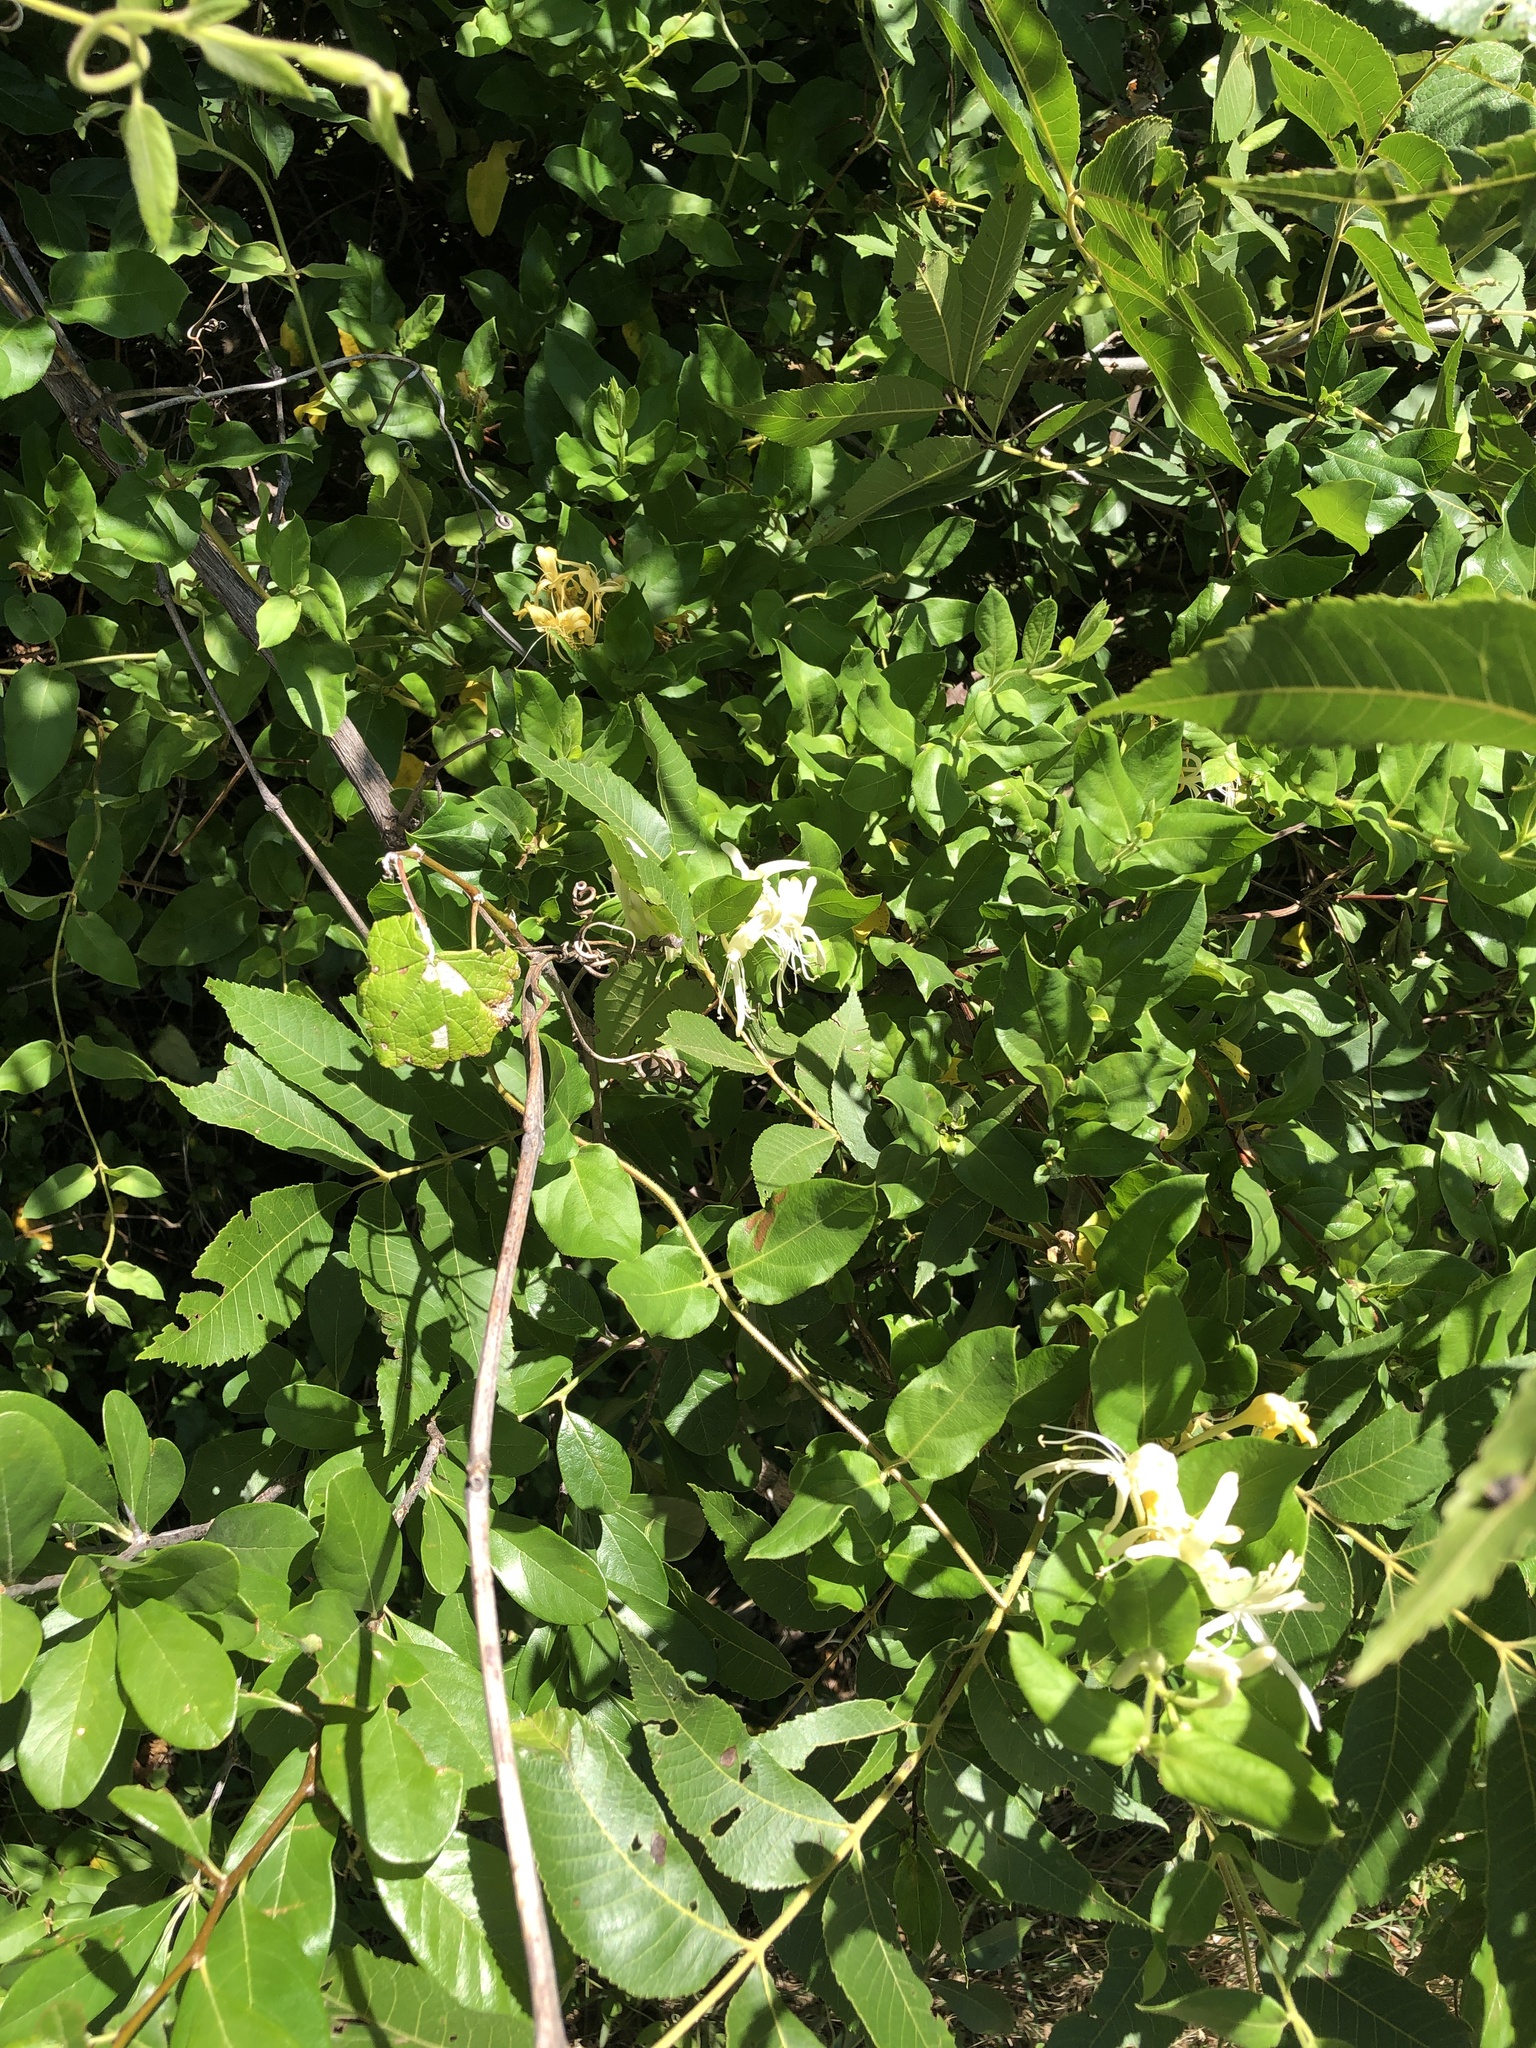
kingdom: Plantae
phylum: Tracheophyta
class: Magnoliopsida
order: Dipsacales
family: Caprifoliaceae
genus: Lonicera
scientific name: Lonicera japonica
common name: Japanese honeysuckle
